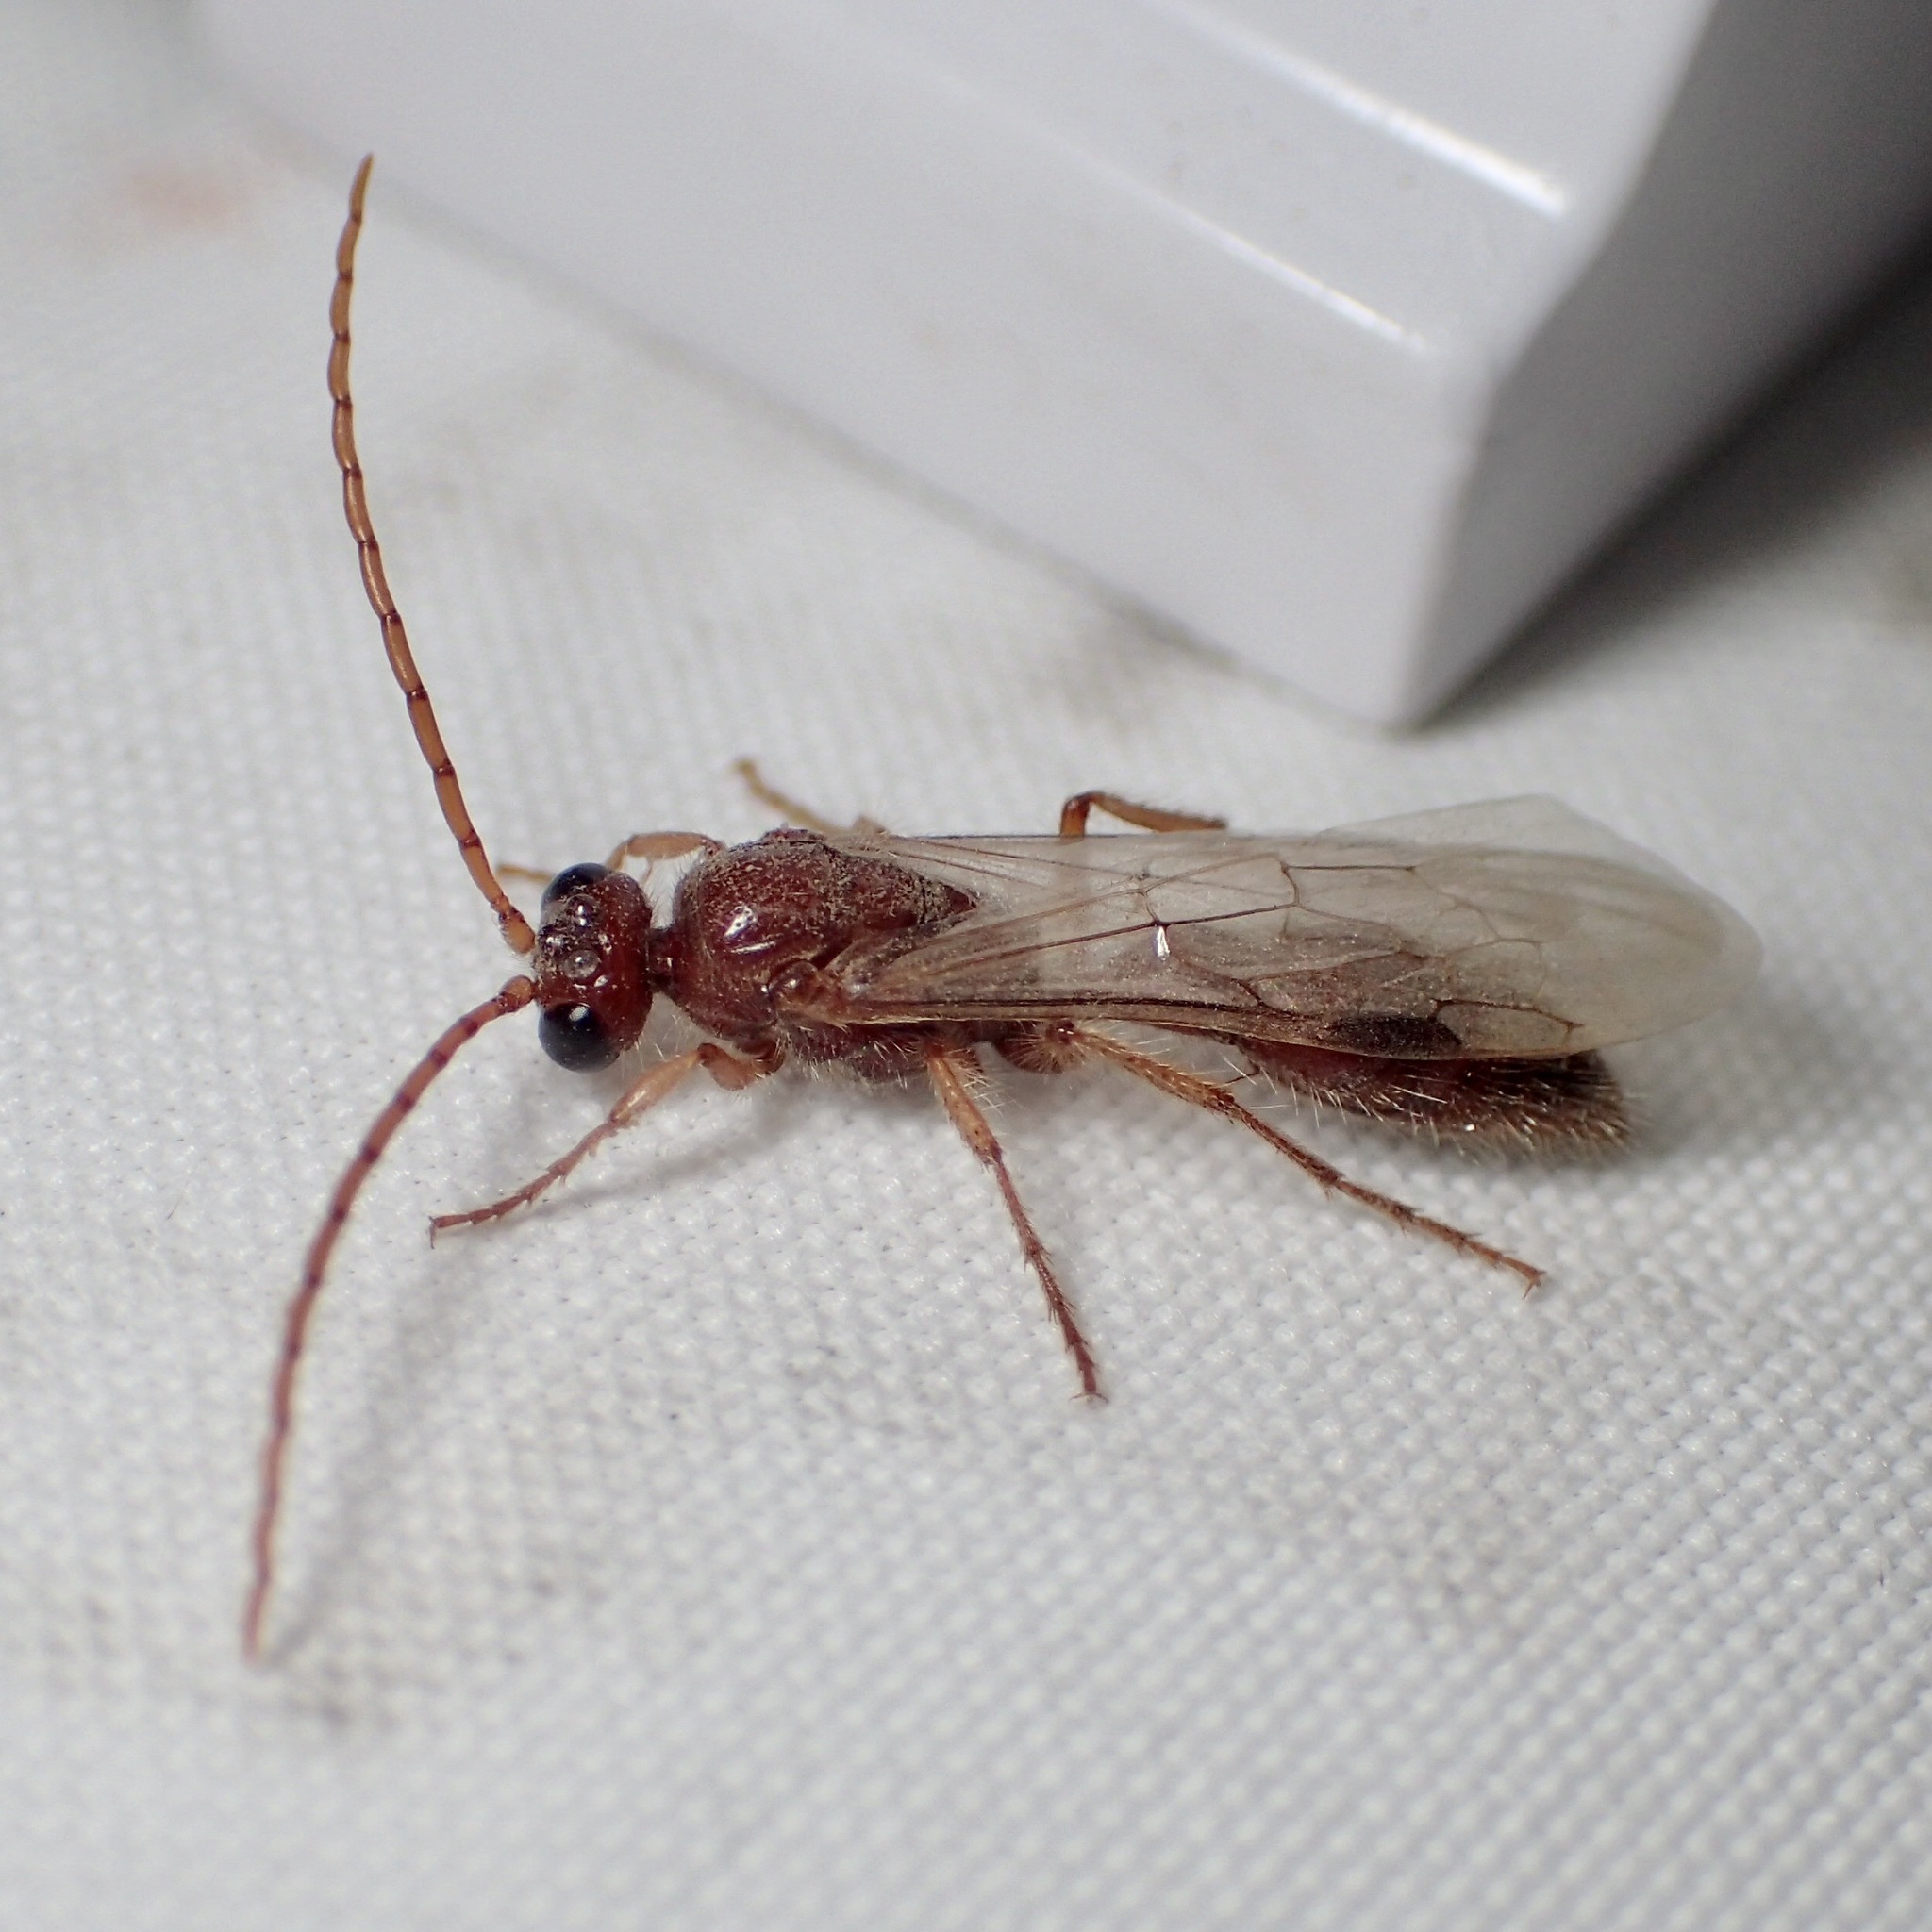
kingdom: Animalia
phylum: Arthropoda
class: Insecta
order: Hymenoptera
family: Tiphiidae
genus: Acanthetropis
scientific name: Acanthetropis idiotes
